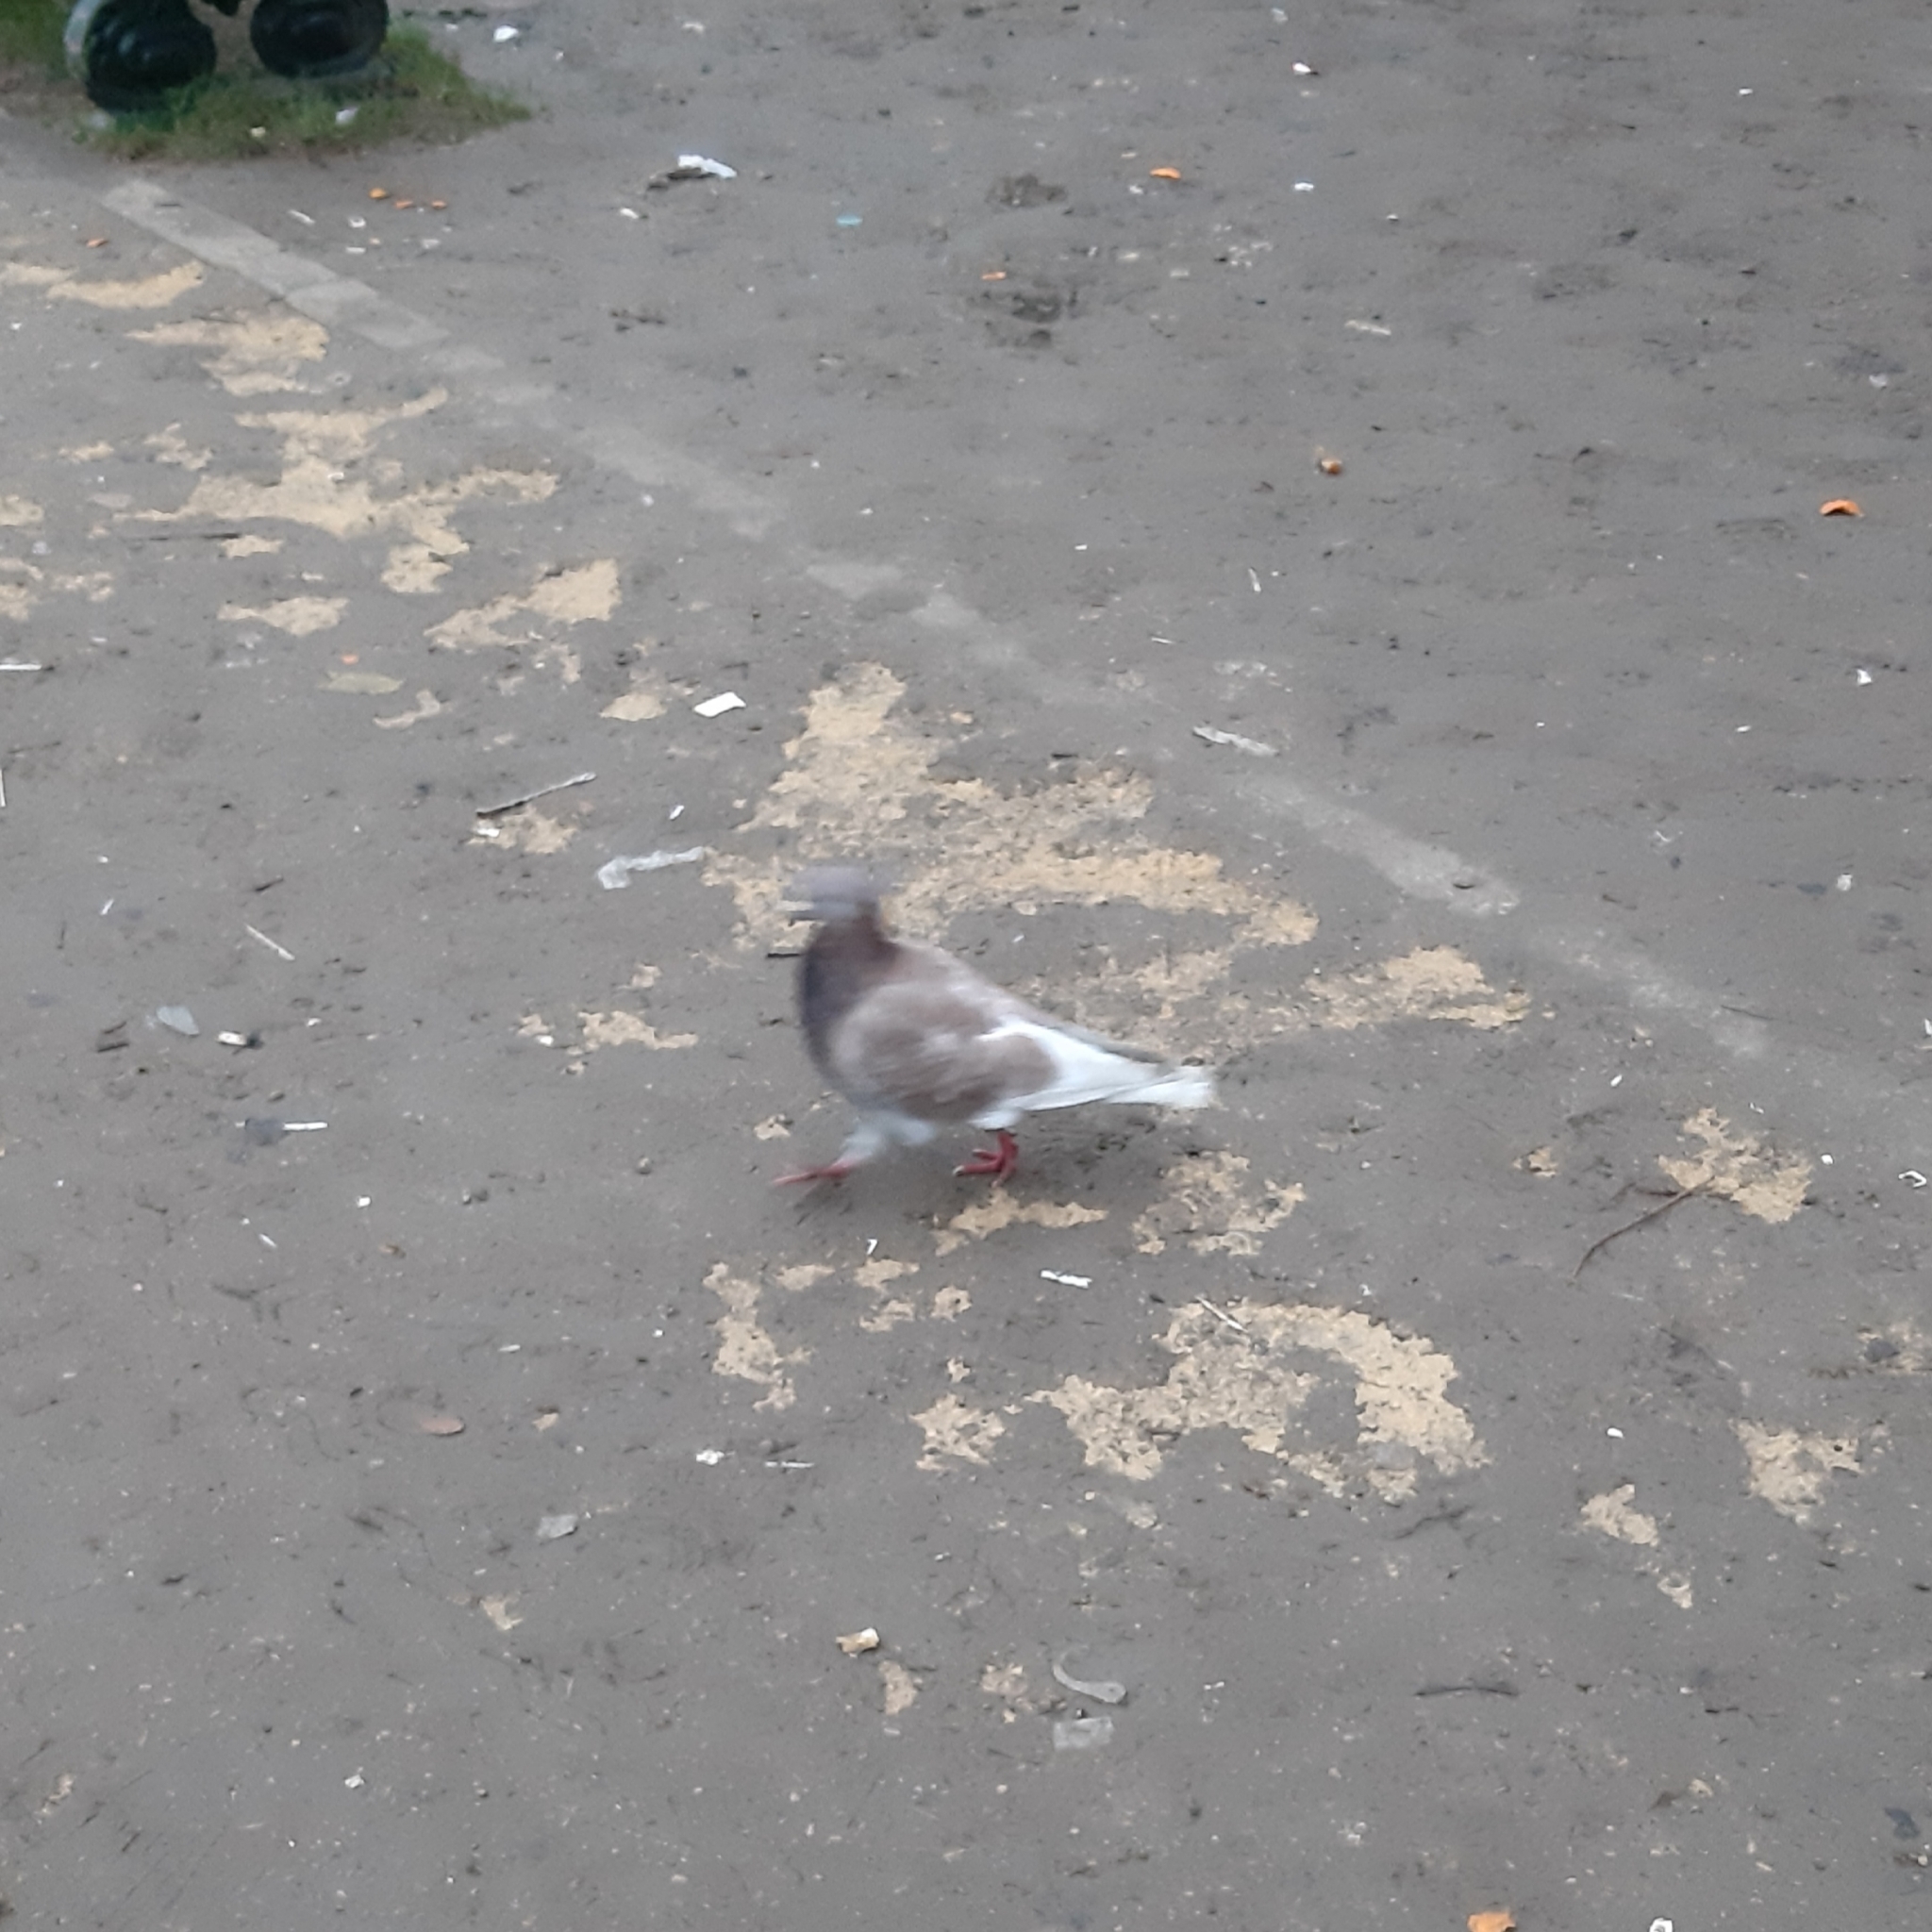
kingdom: Animalia
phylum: Chordata
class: Aves
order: Columbiformes
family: Columbidae
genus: Columba
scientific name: Columba livia
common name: Rock pigeon
